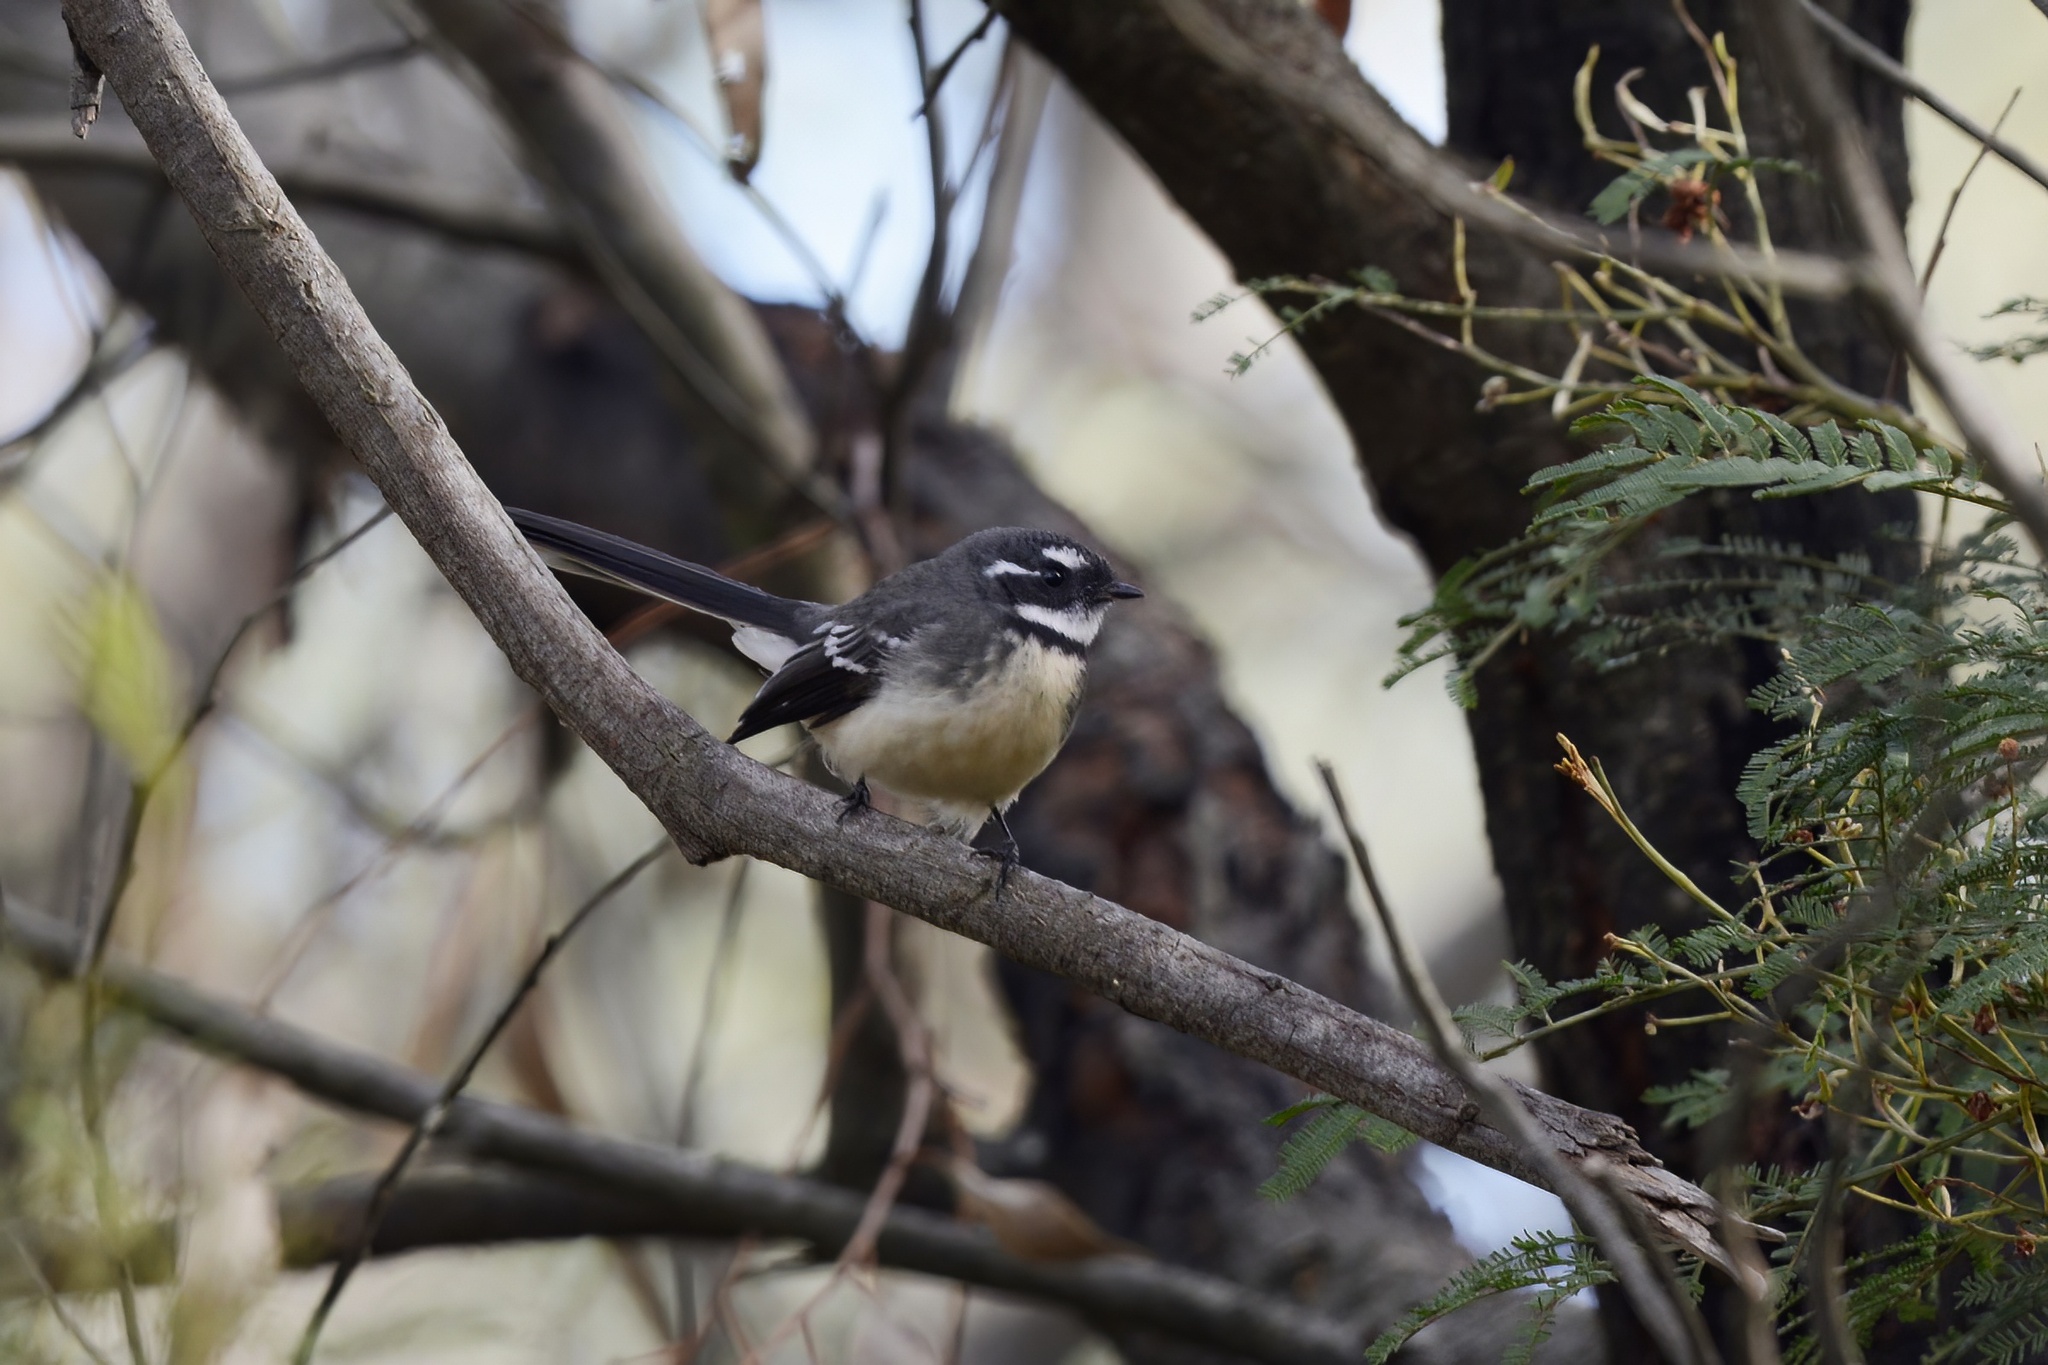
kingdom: Animalia
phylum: Chordata
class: Aves
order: Passeriformes
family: Rhipiduridae
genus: Rhipidura
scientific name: Rhipidura albiscapa
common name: Grey fantail
